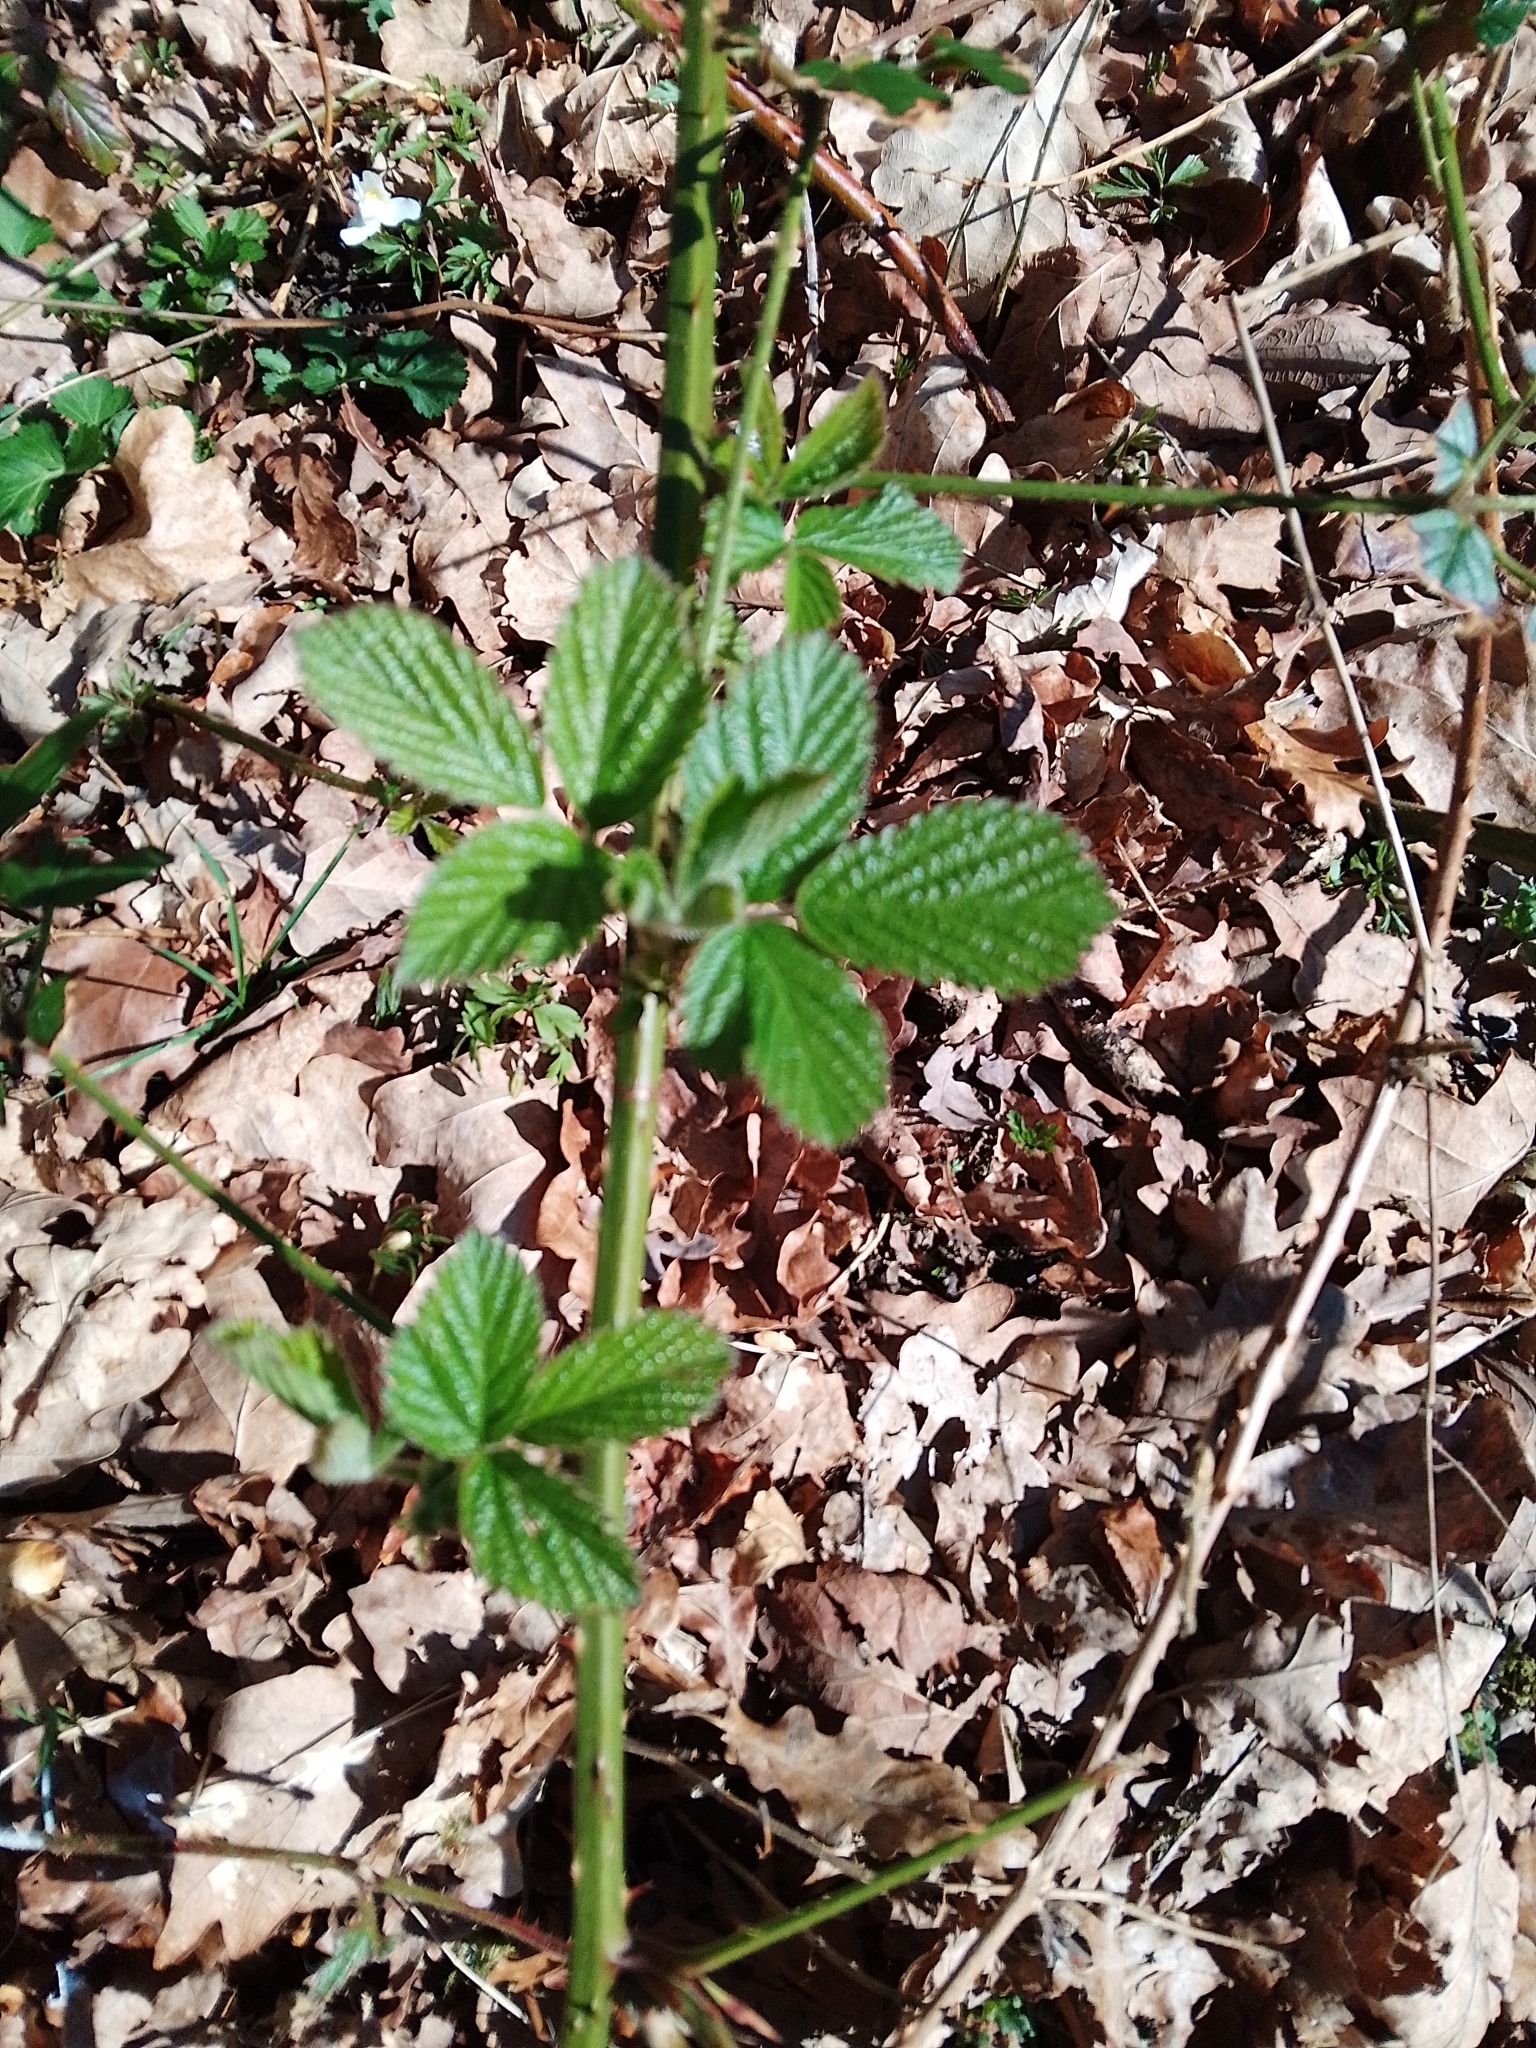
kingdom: Plantae
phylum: Tracheophyta
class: Magnoliopsida
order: Rosales
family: Rosaceae
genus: Rubus
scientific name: Rubus fruticosus
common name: Blackberry, bramble
